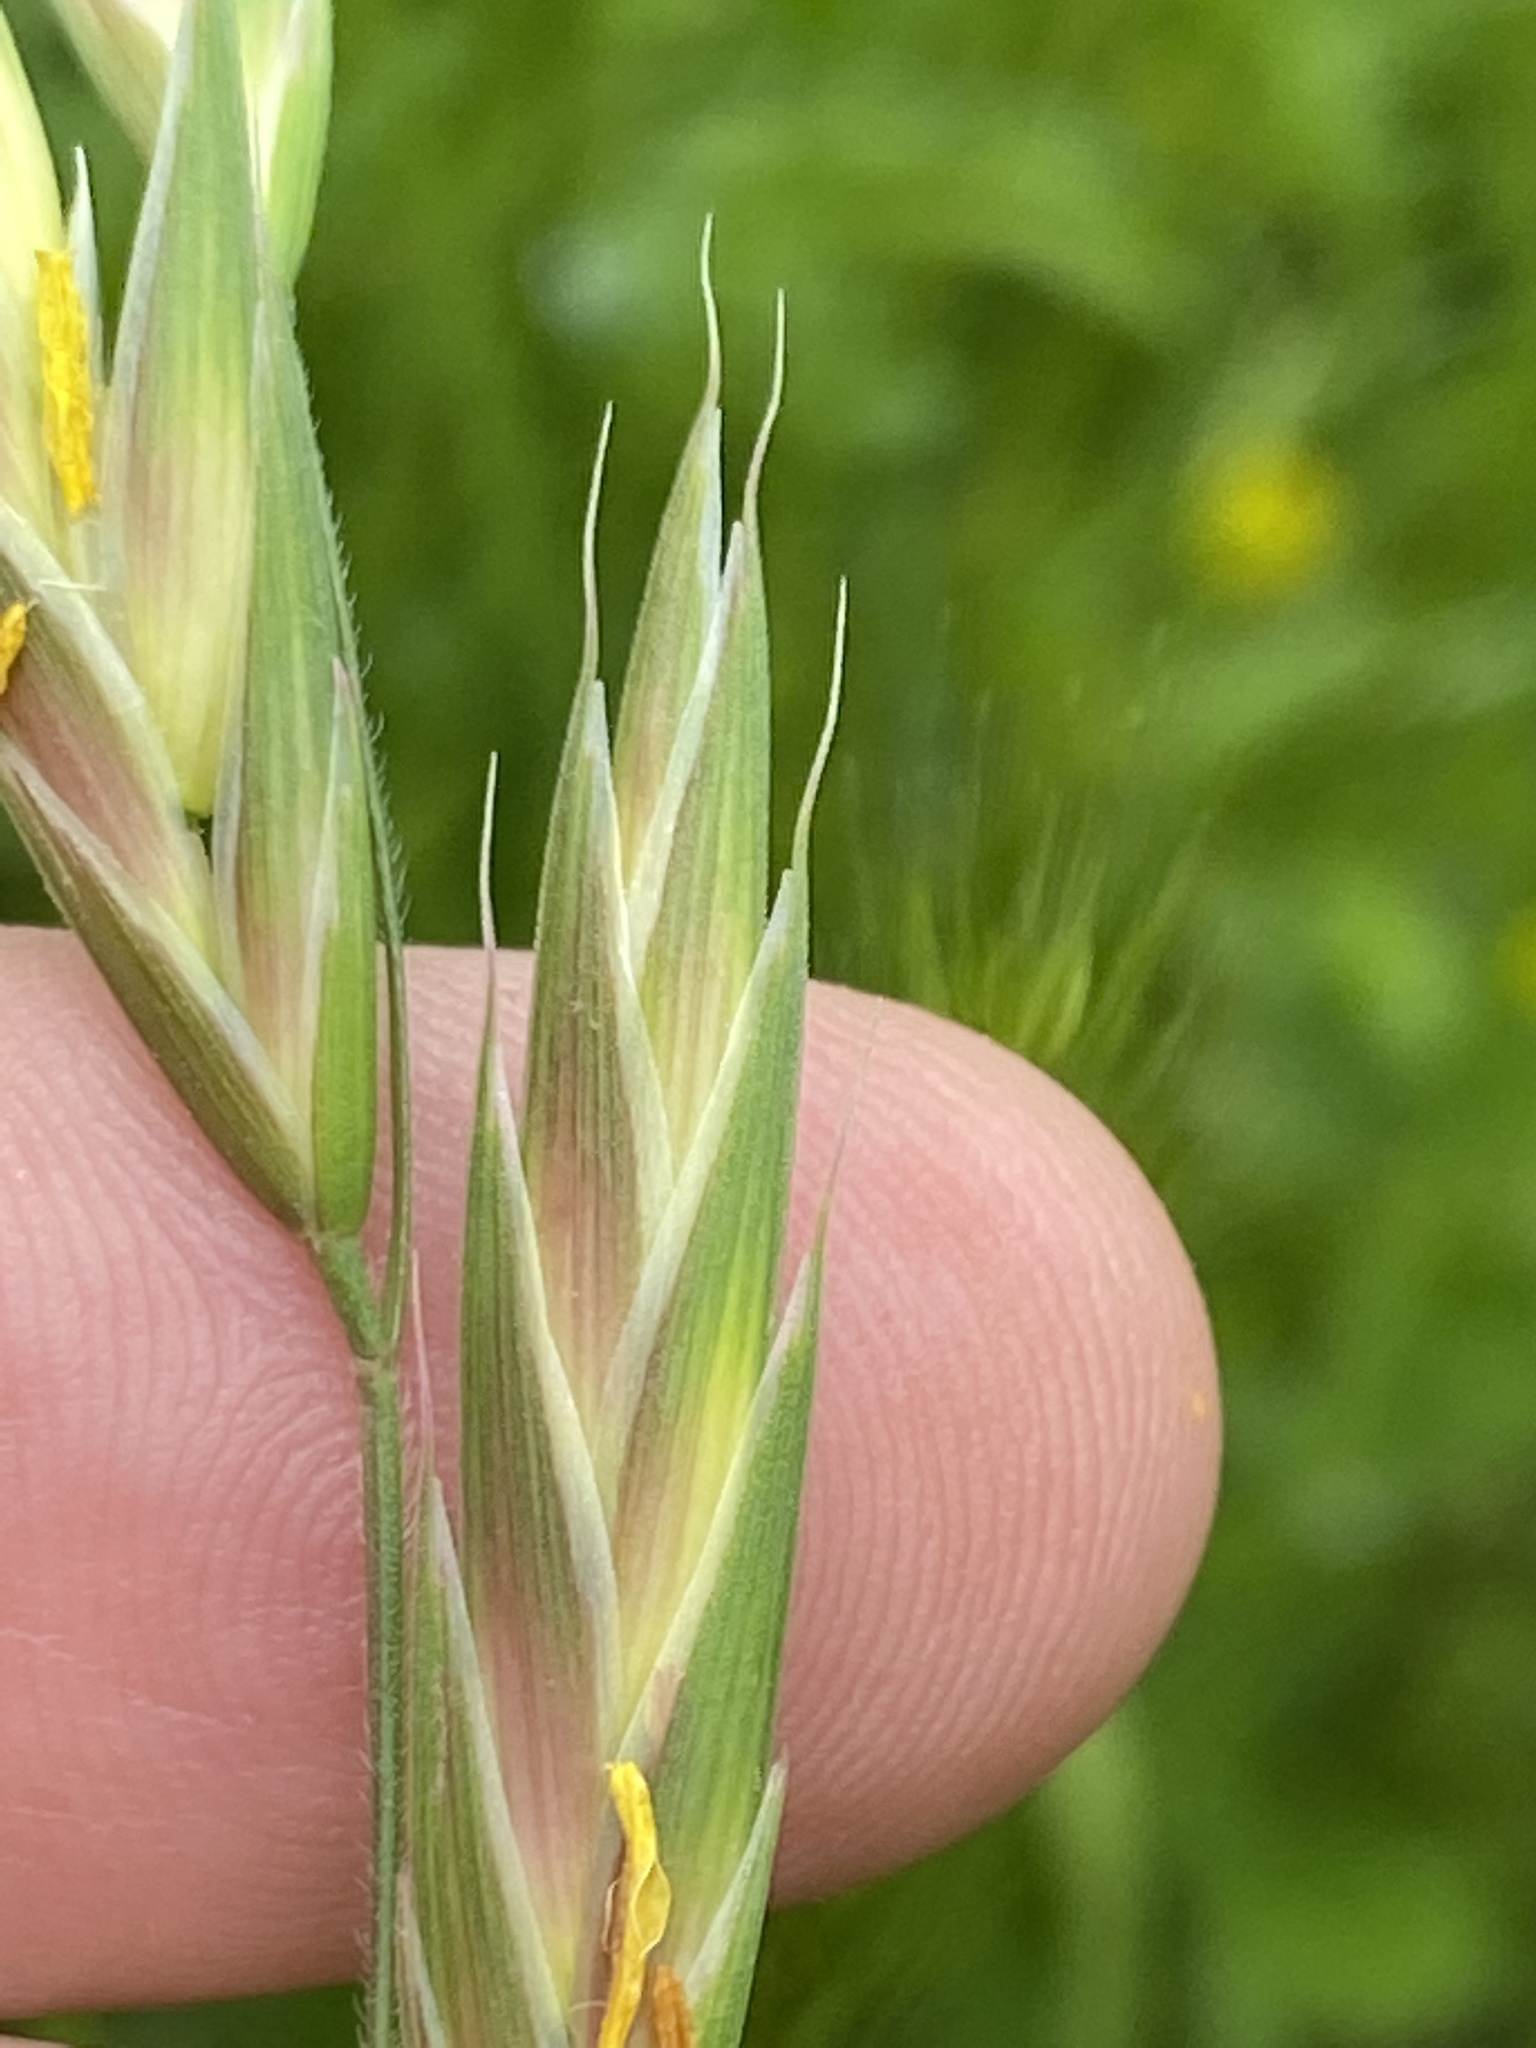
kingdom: Plantae
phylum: Tracheophyta
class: Liliopsida
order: Poales
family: Poaceae
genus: Bromus
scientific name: Bromus catharticus
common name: Rescuegrass
